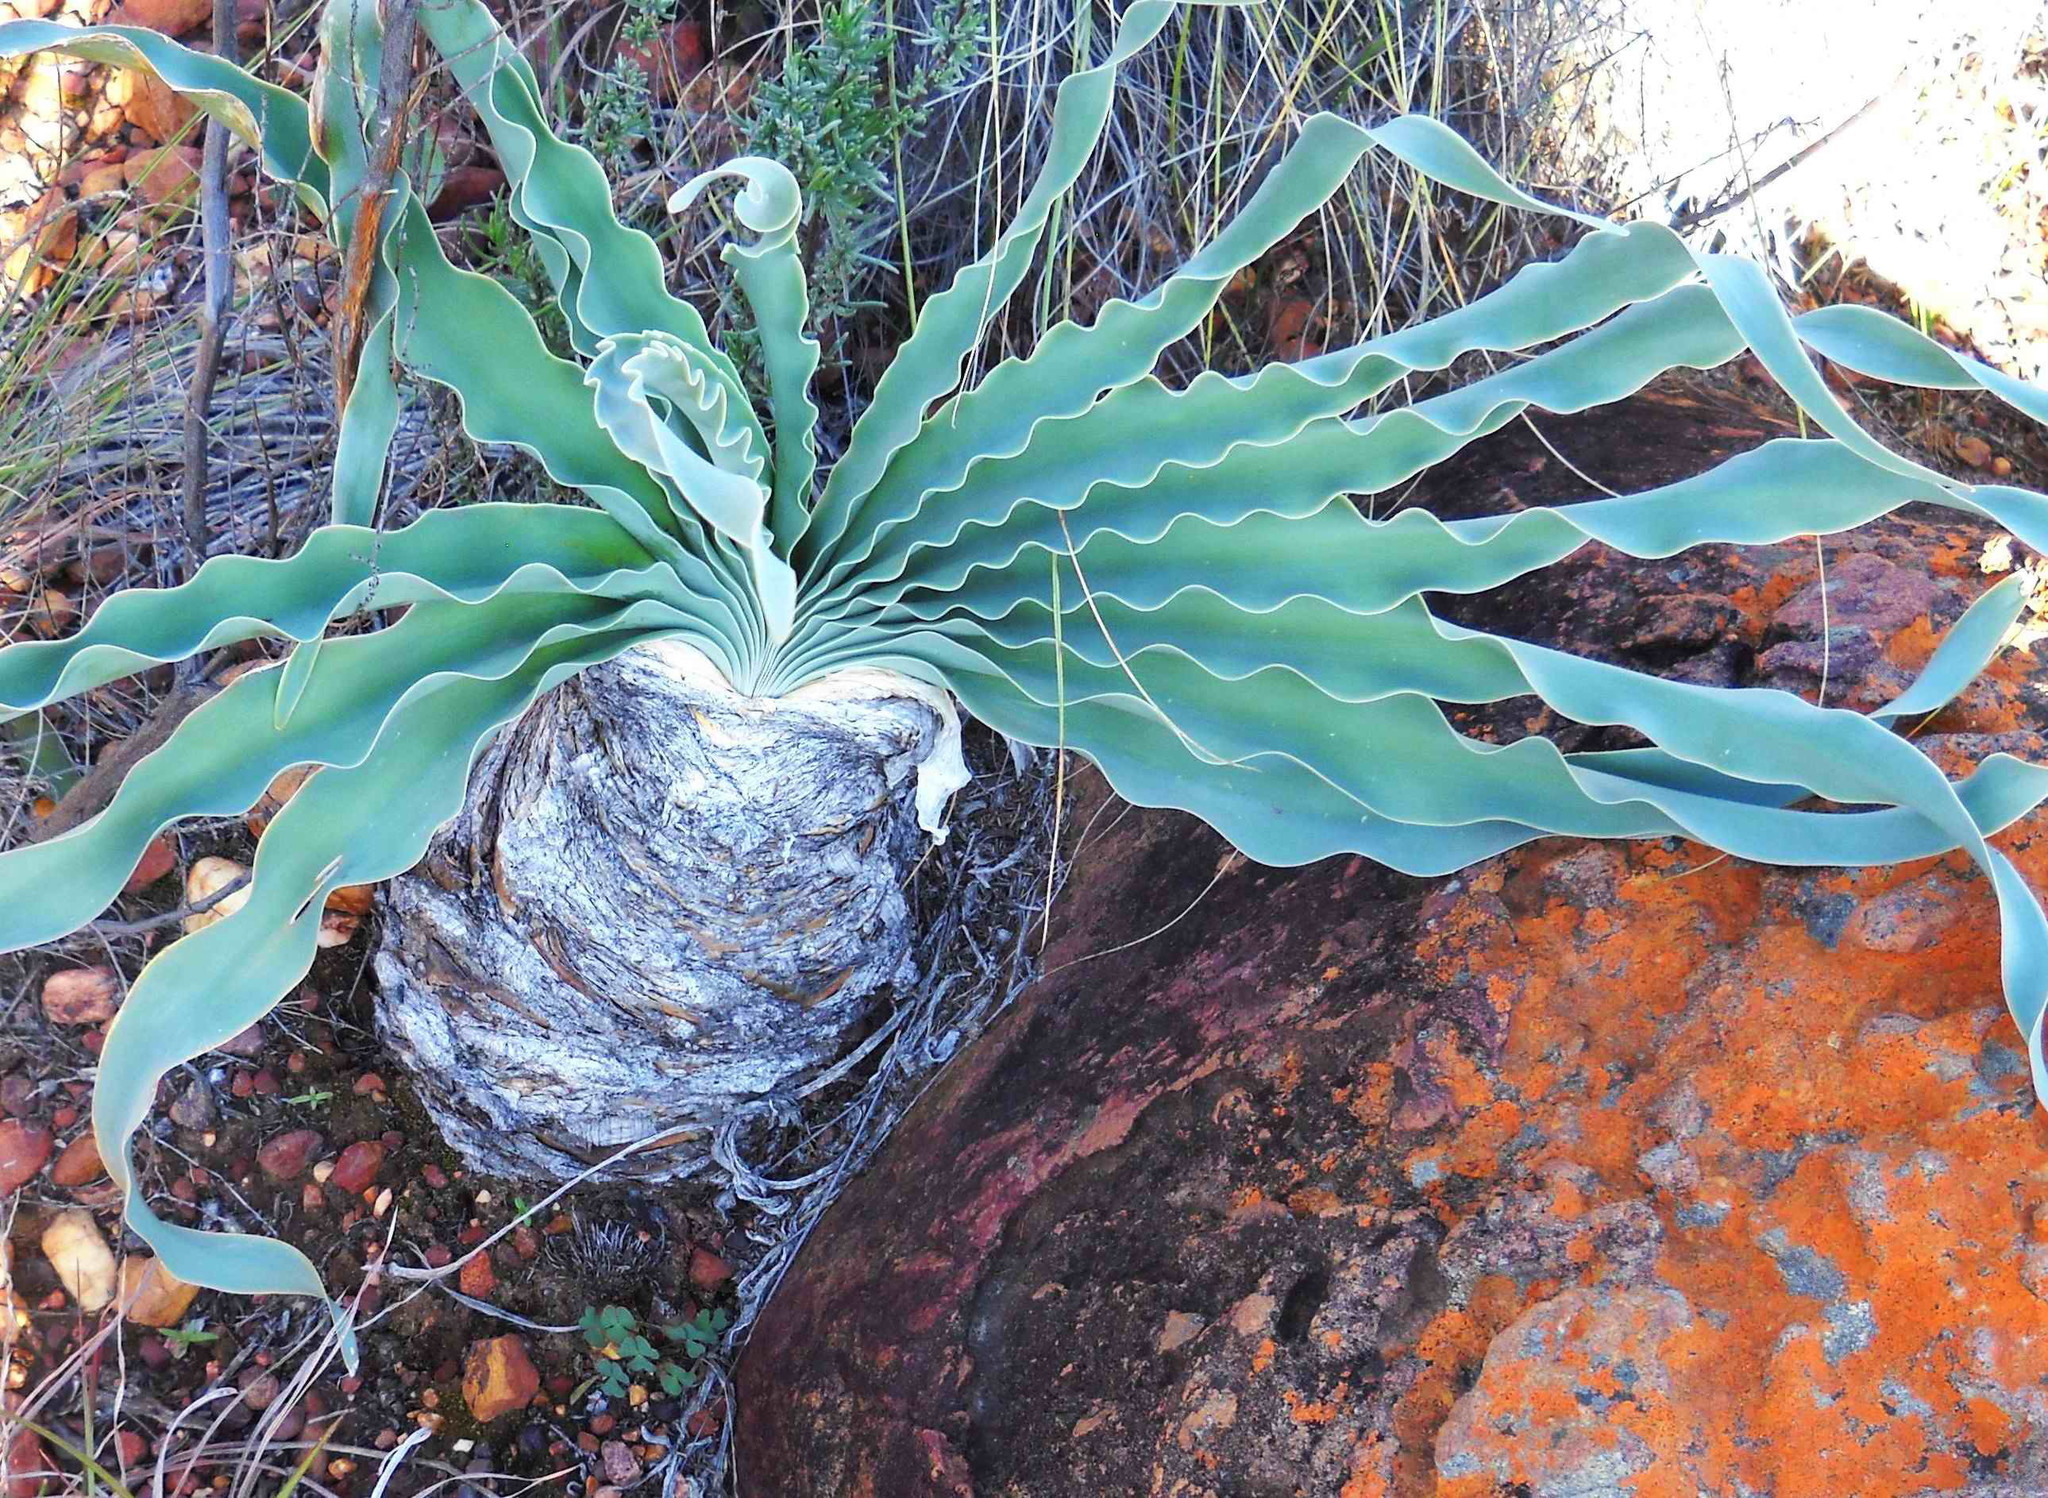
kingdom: Plantae
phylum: Tracheophyta
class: Liliopsida
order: Asparagales
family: Amaryllidaceae
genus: Boophone
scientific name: Boophone disticha
